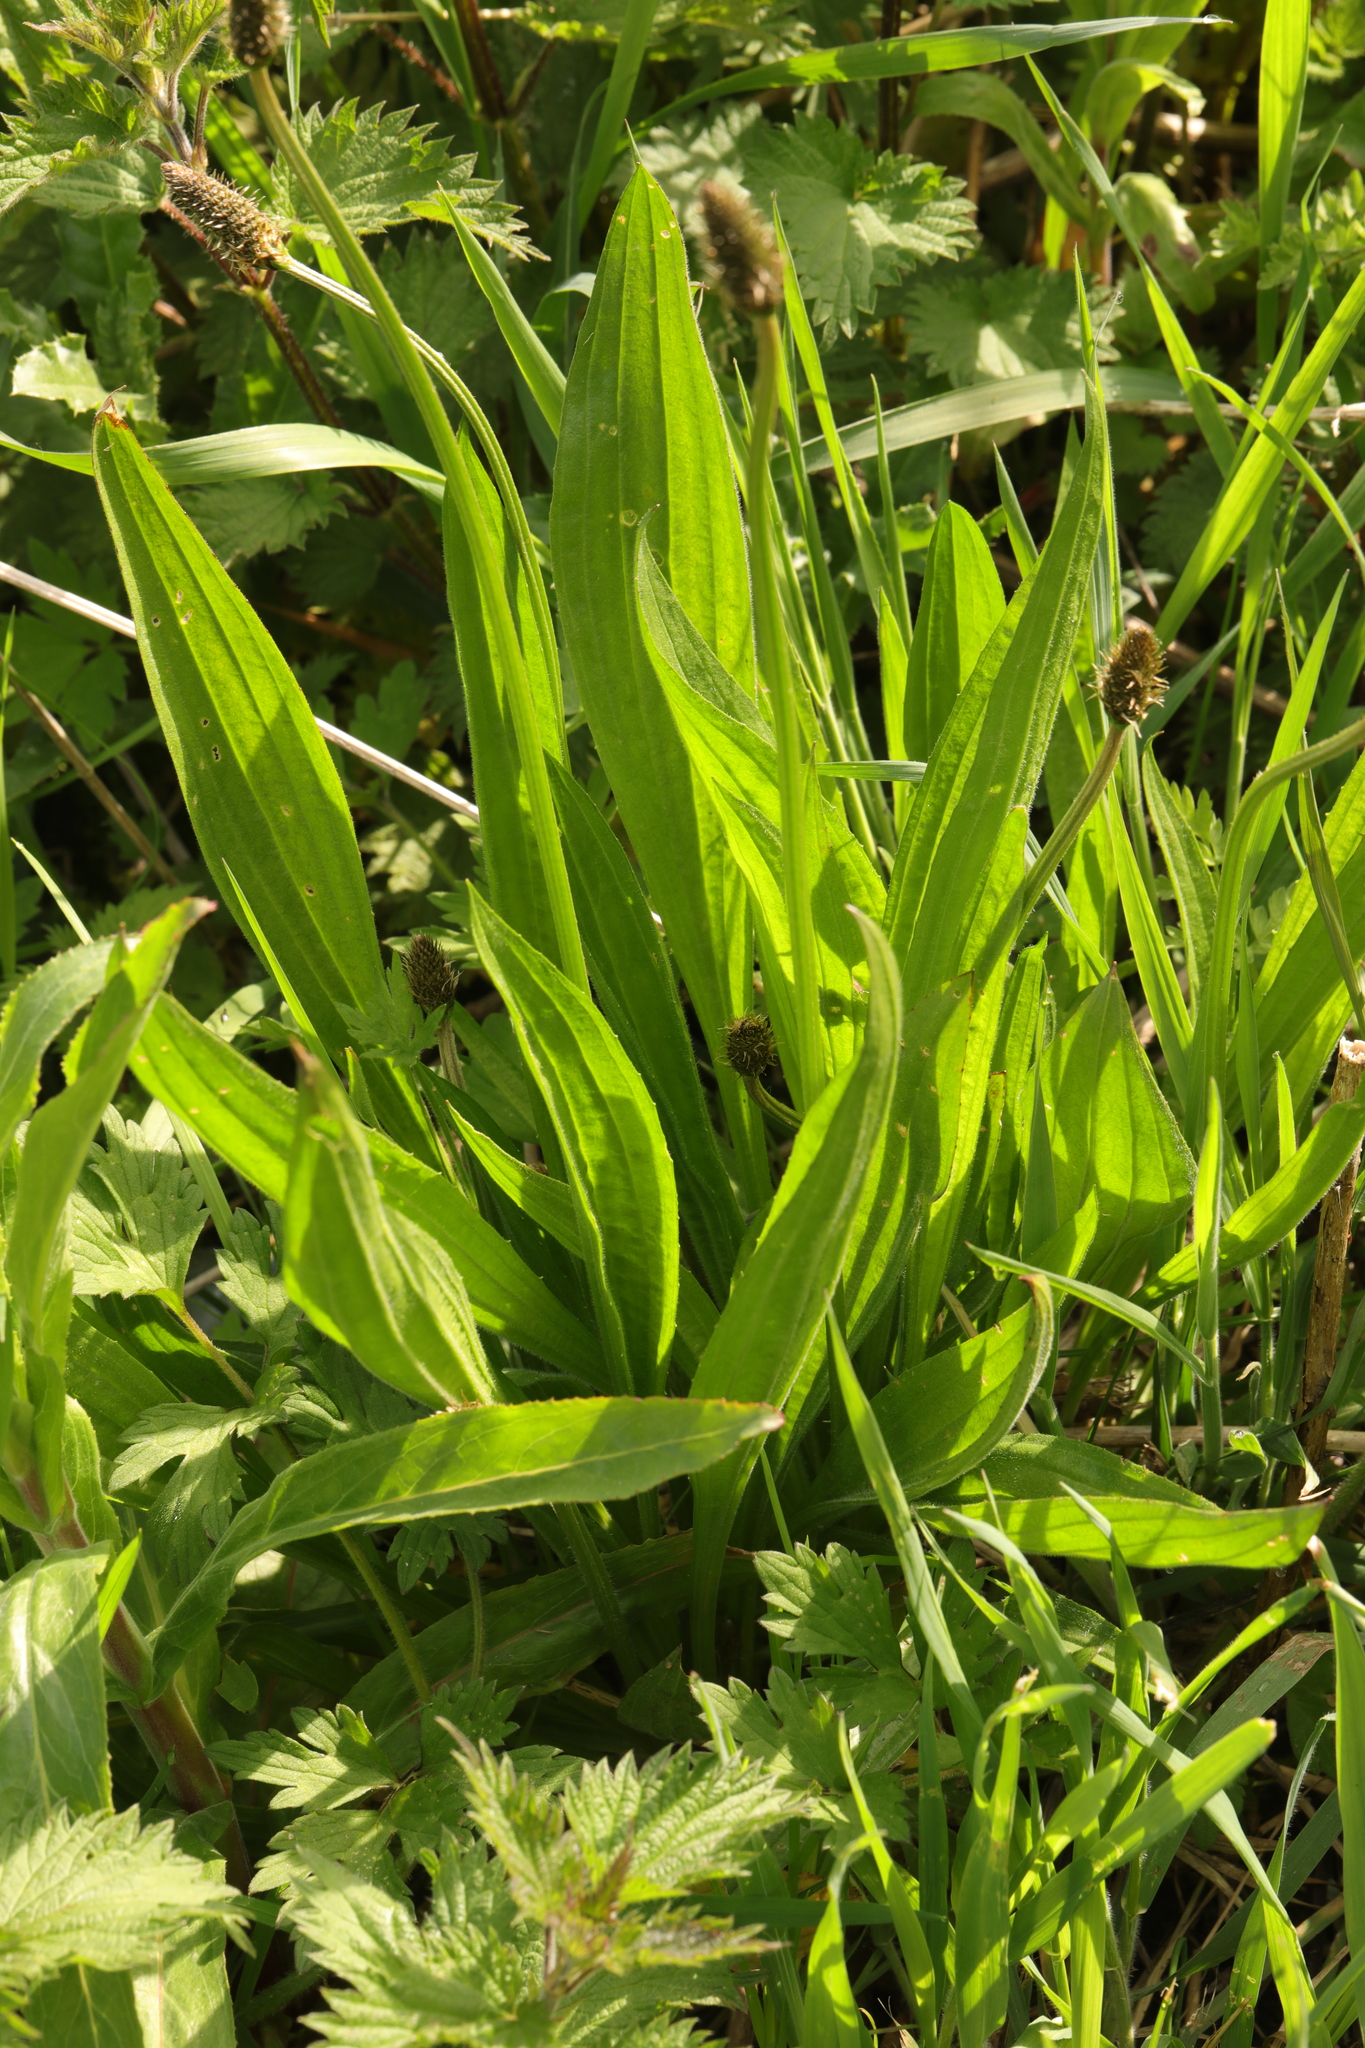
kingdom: Plantae
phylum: Tracheophyta
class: Magnoliopsida
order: Lamiales
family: Plantaginaceae
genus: Plantago
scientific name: Plantago lanceolata
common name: Ribwort plantain
